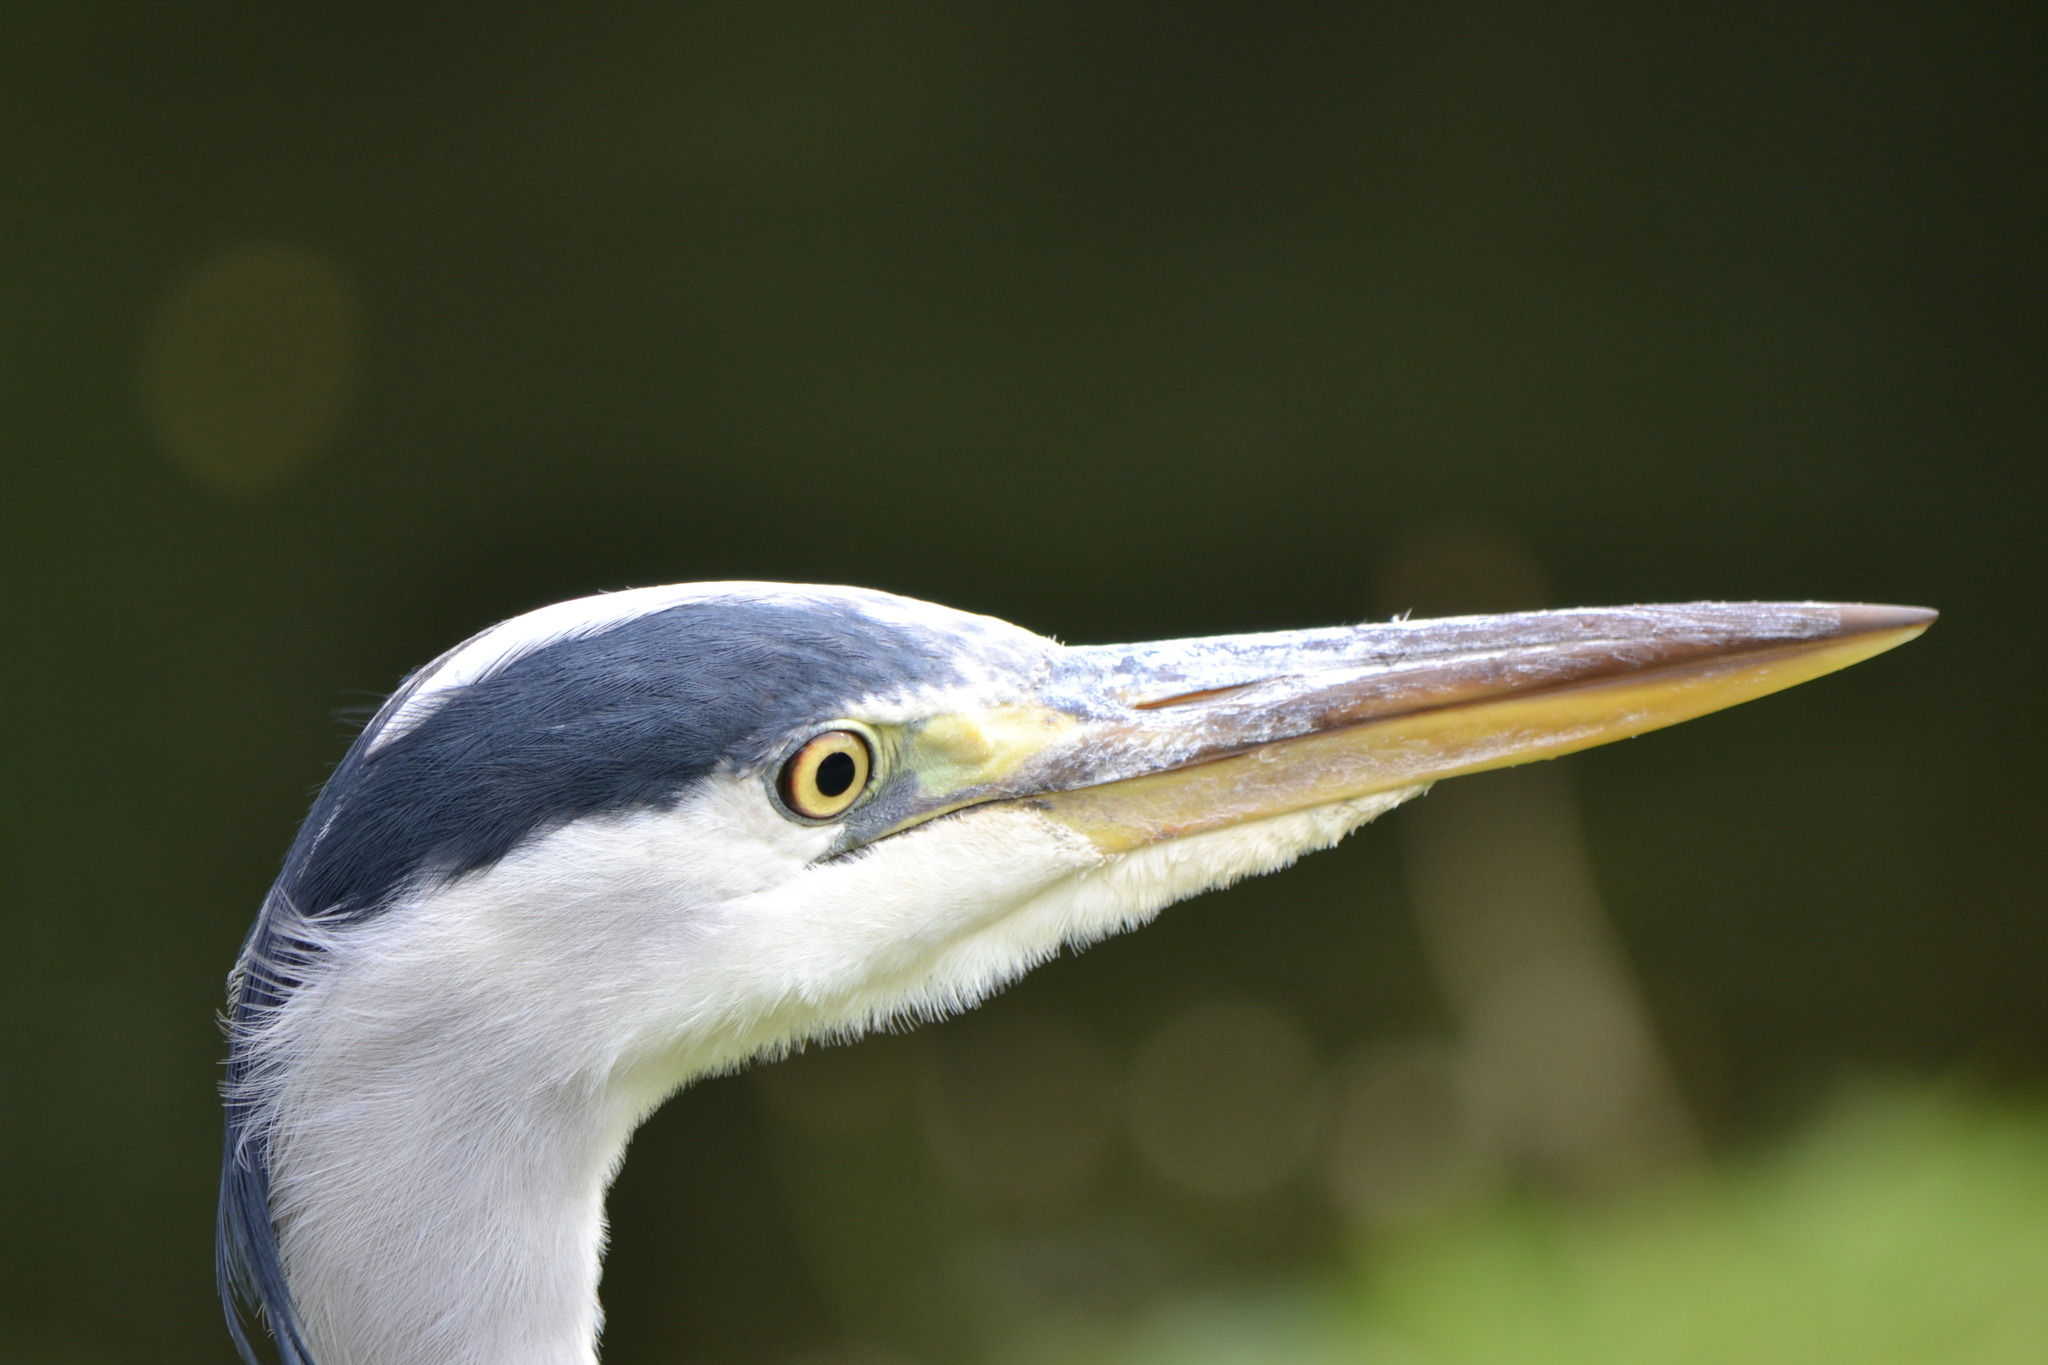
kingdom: Animalia
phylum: Chordata
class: Aves
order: Pelecaniformes
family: Ardeidae
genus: Ardea
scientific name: Ardea cinerea
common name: Grey heron
